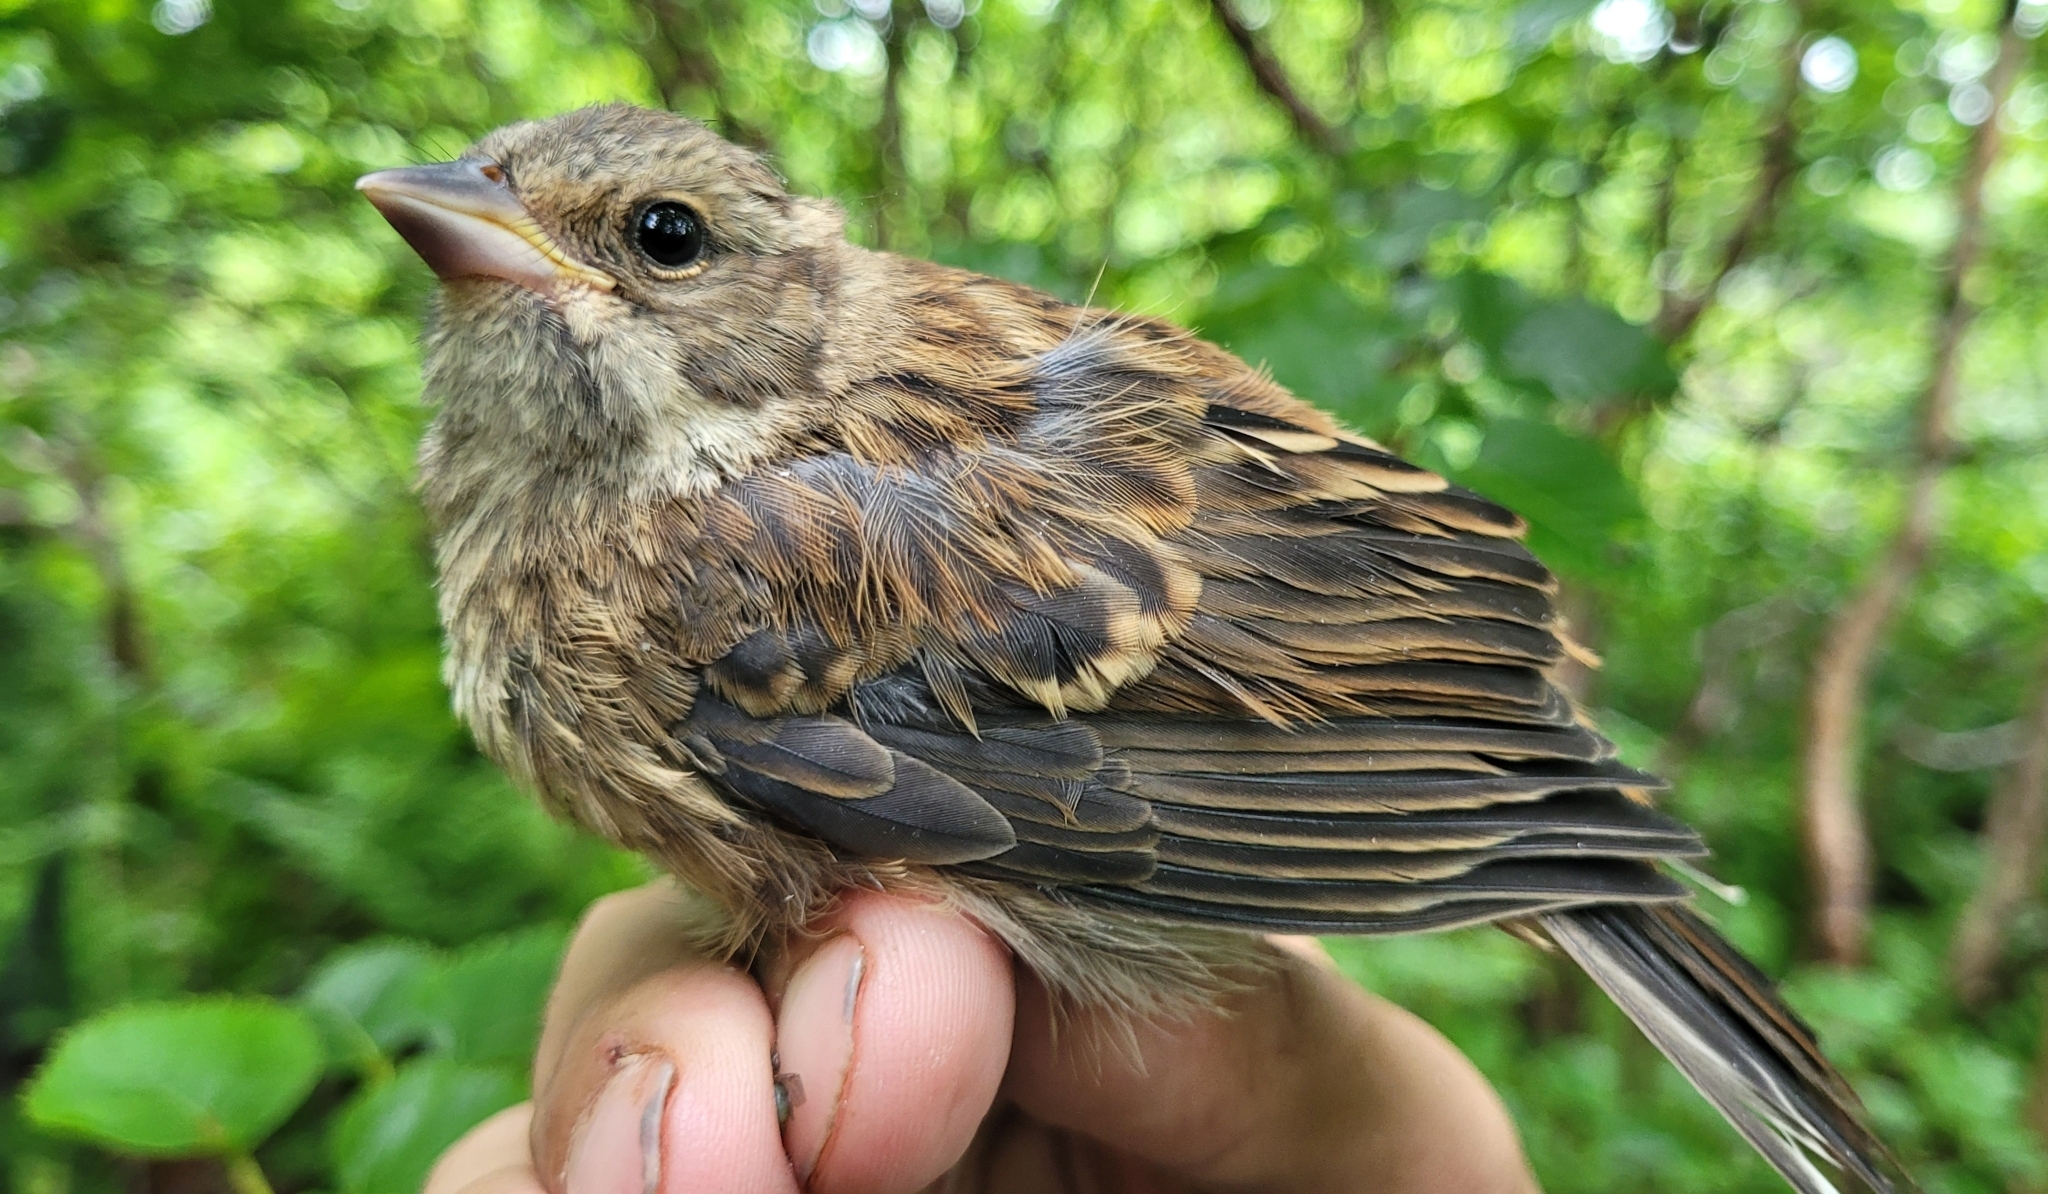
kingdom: Animalia
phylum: Chordata
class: Aves
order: Passeriformes
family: Emberizidae
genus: Emberiza
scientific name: Emberiza variabilis
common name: Gray bunting
